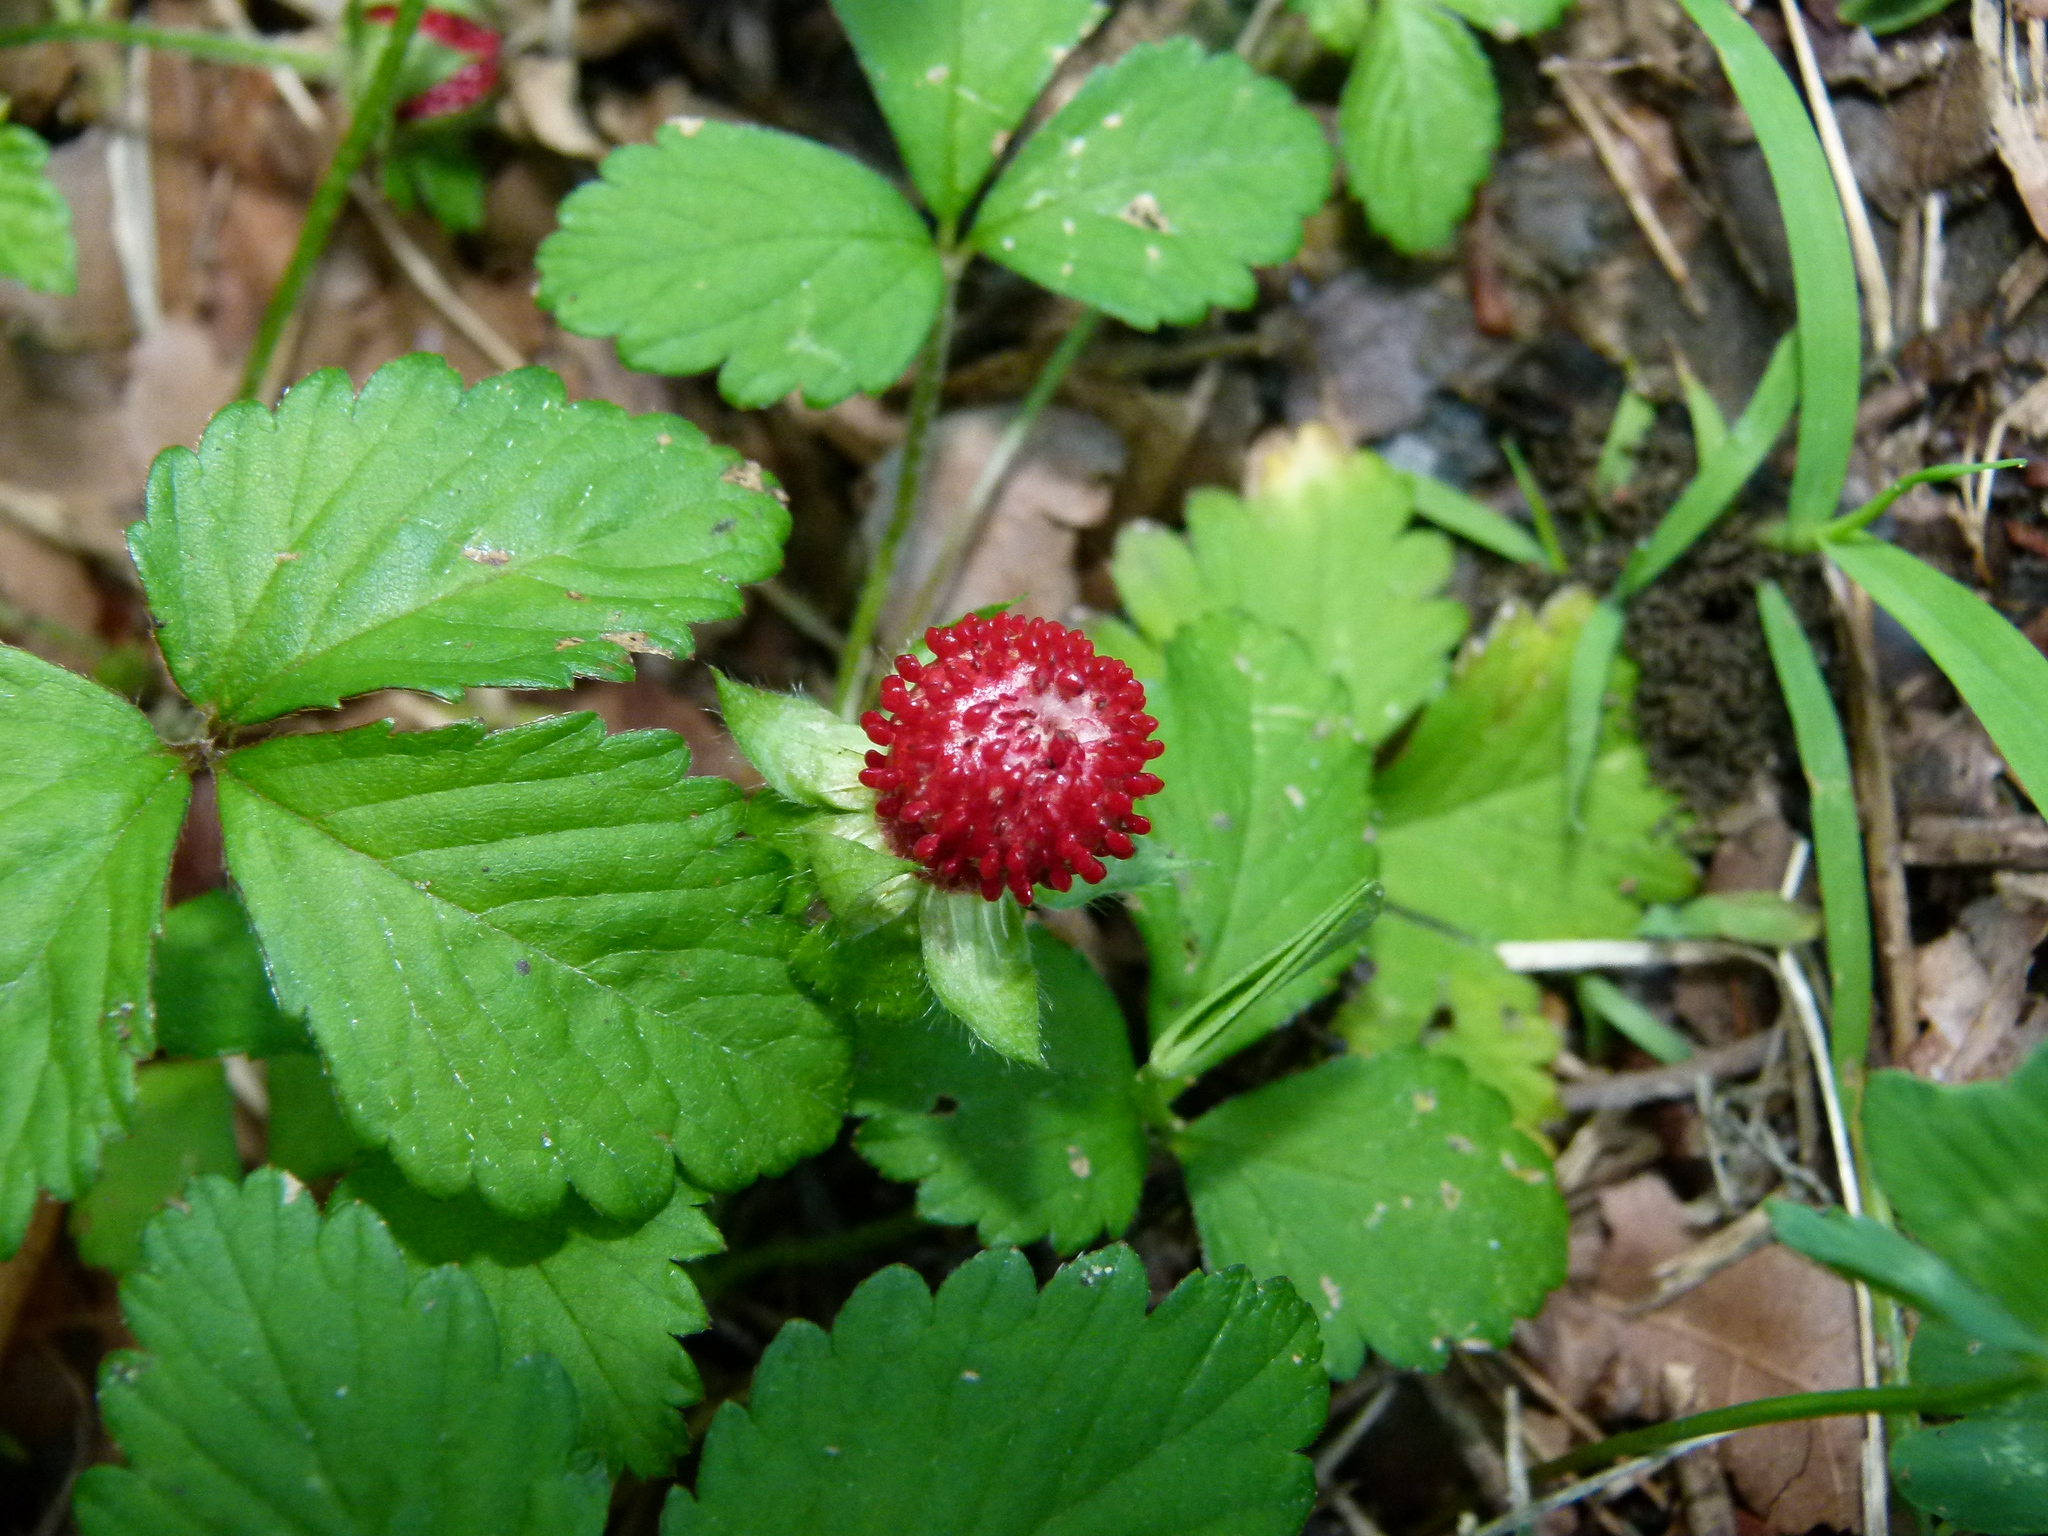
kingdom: Plantae
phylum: Tracheophyta
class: Magnoliopsida
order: Rosales
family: Rosaceae
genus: Potentilla
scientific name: Potentilla indica
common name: Yellow-flowered strawberry
